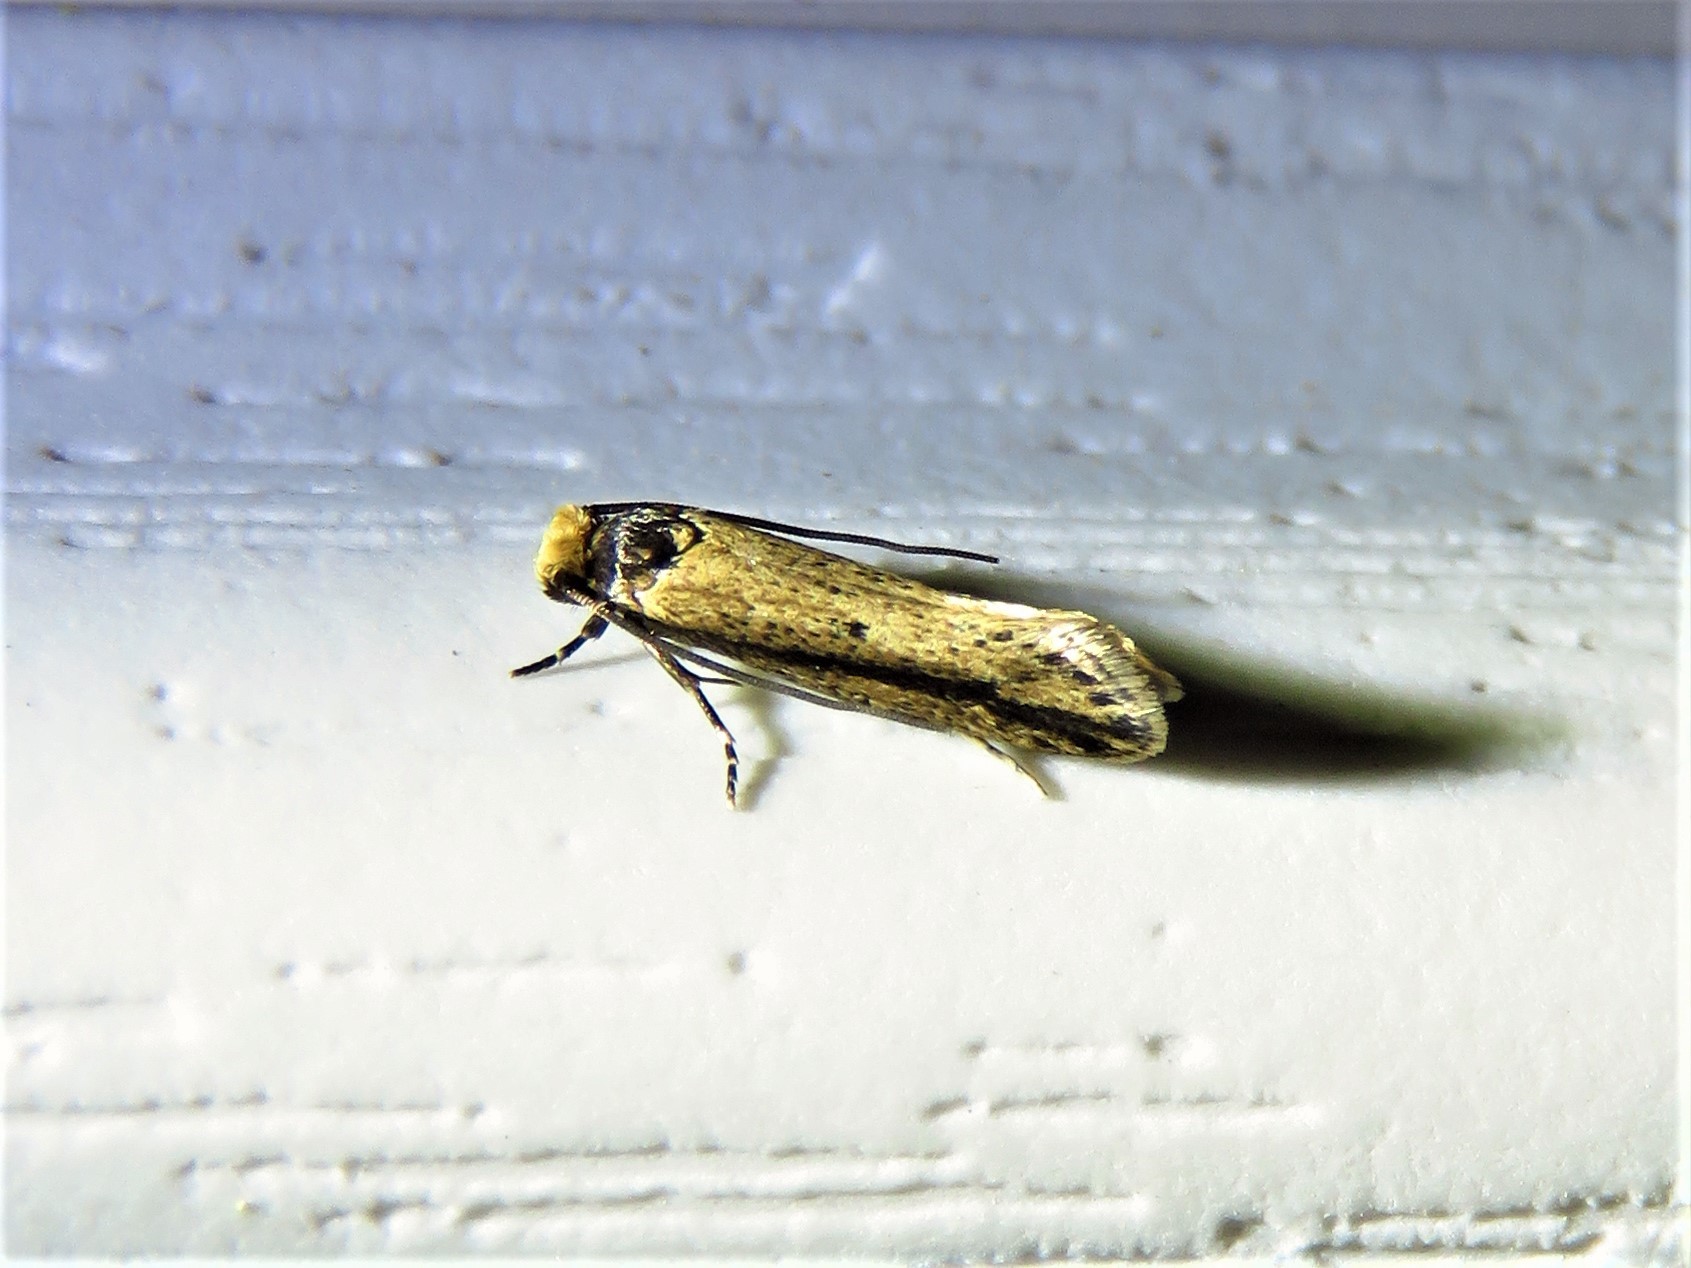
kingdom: Animalia
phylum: Arthropoda
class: Insecta
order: Lepidoptera
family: Tineidae
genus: Tinea
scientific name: Tinea apicimaculella
